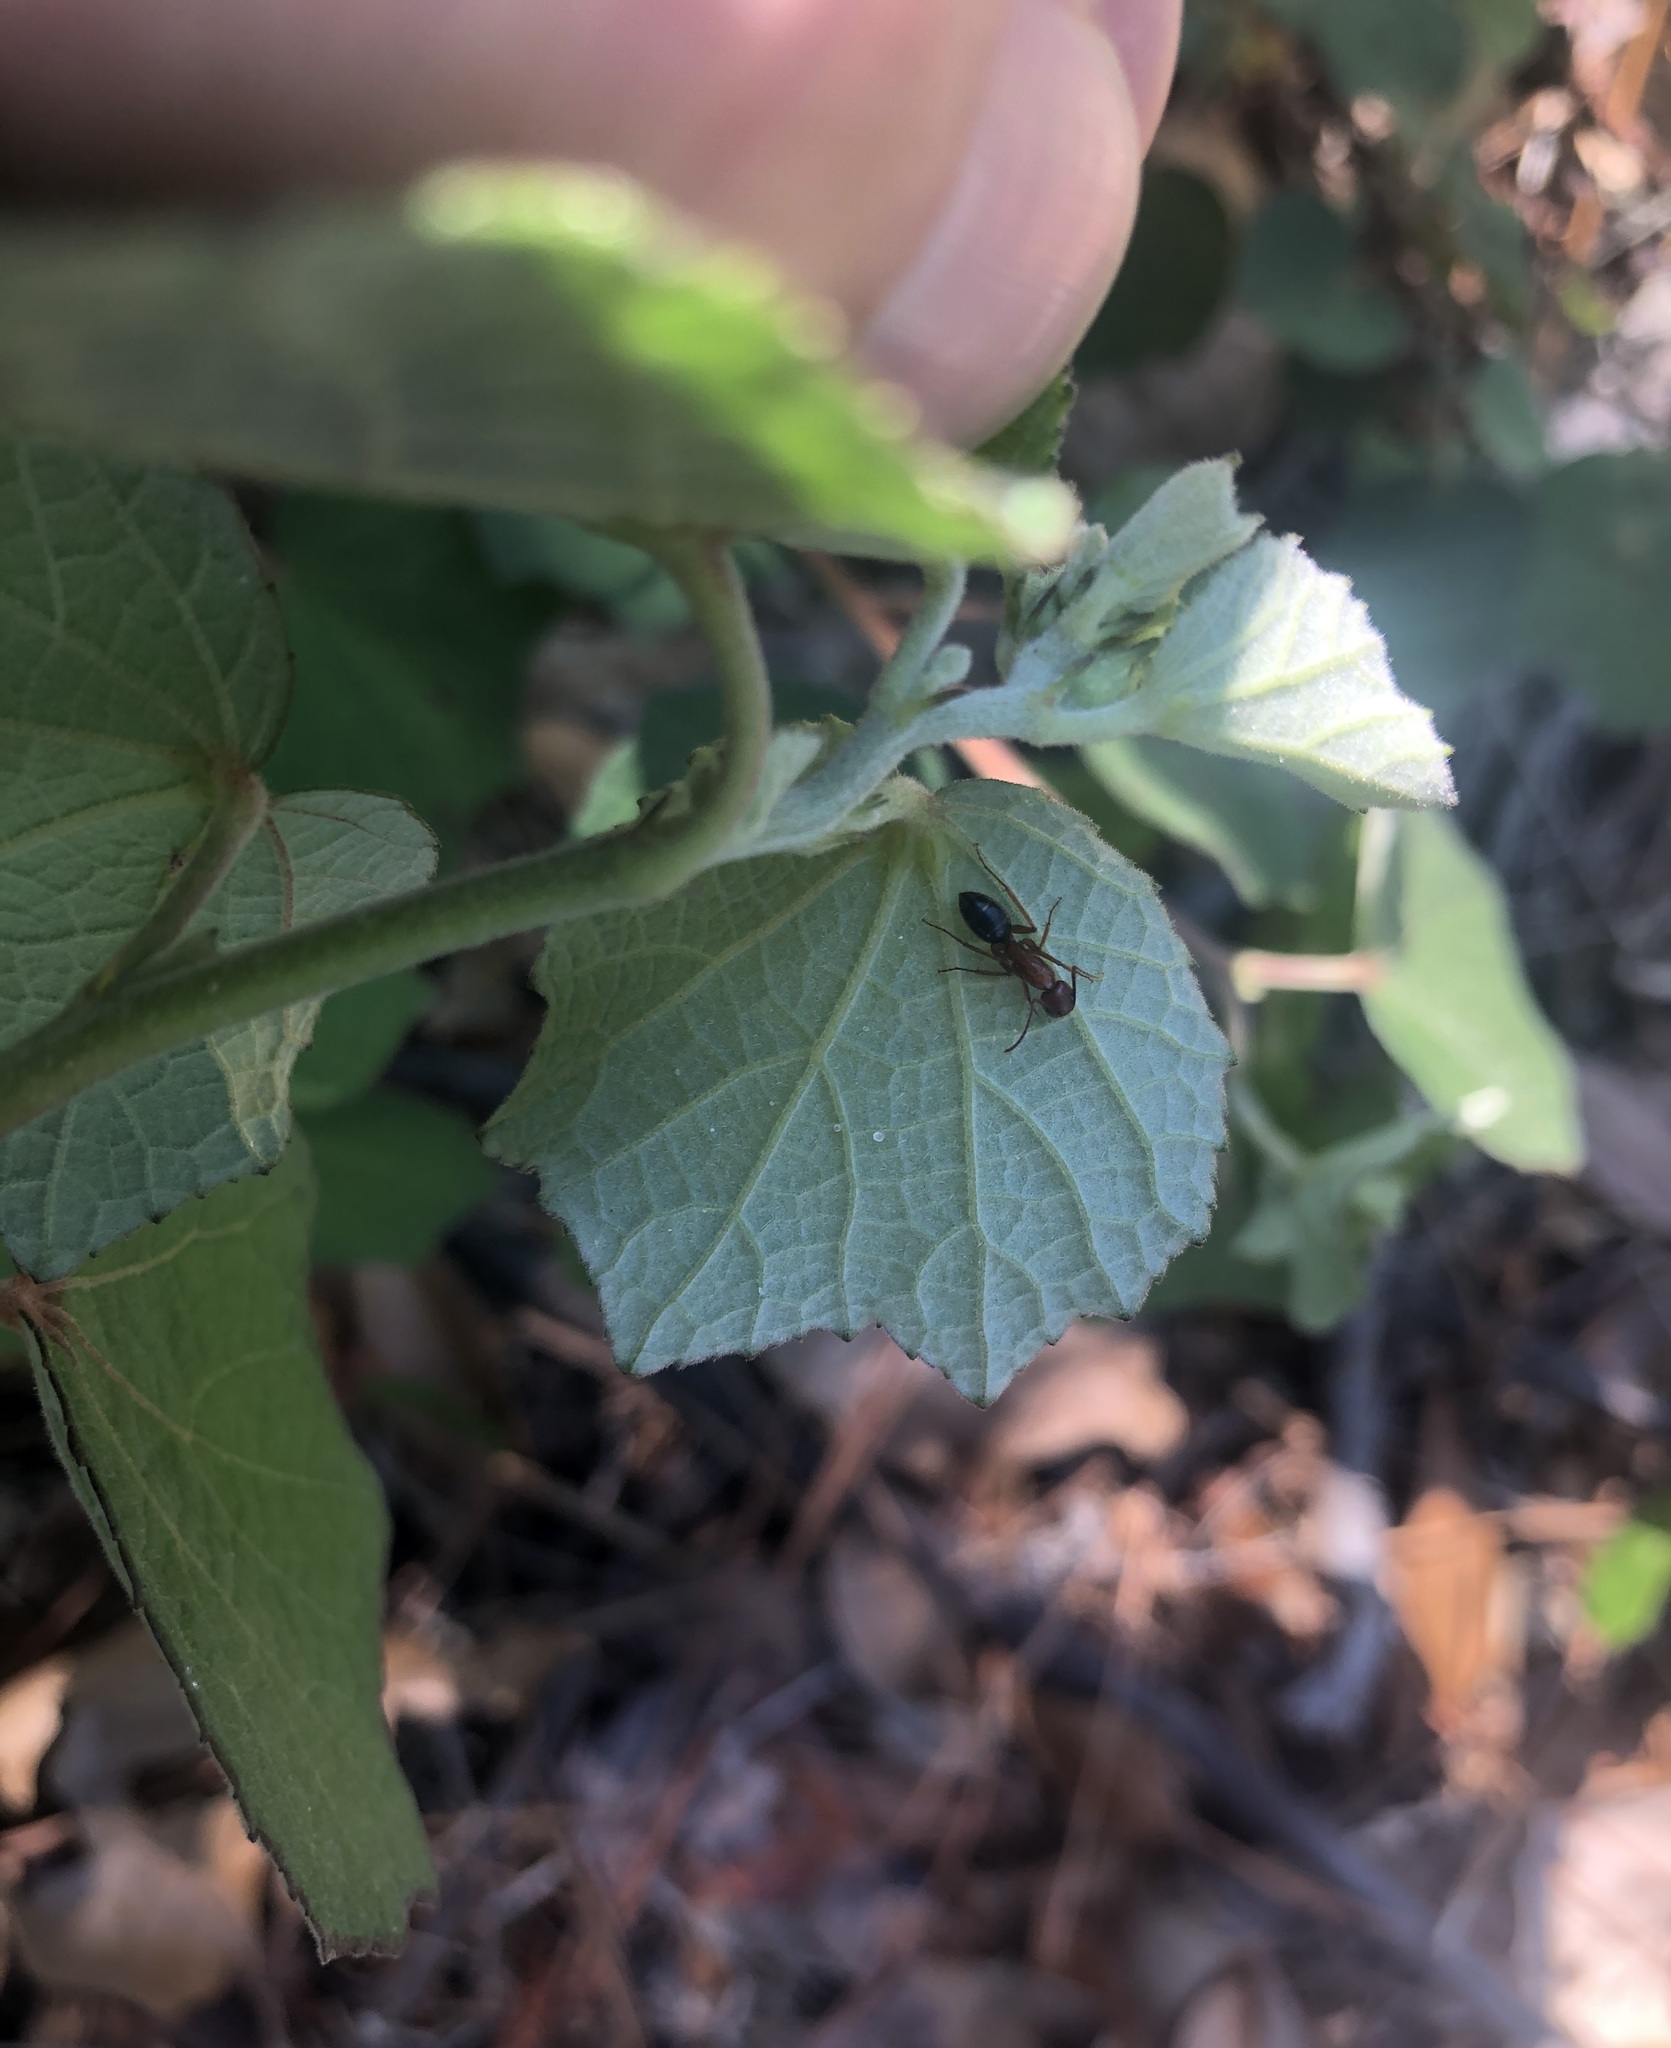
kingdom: Animalia
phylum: Arthropoda
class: Insecta
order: Hymenoptera
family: Formicidae
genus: Camponotus
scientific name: Camponotus floridanus
